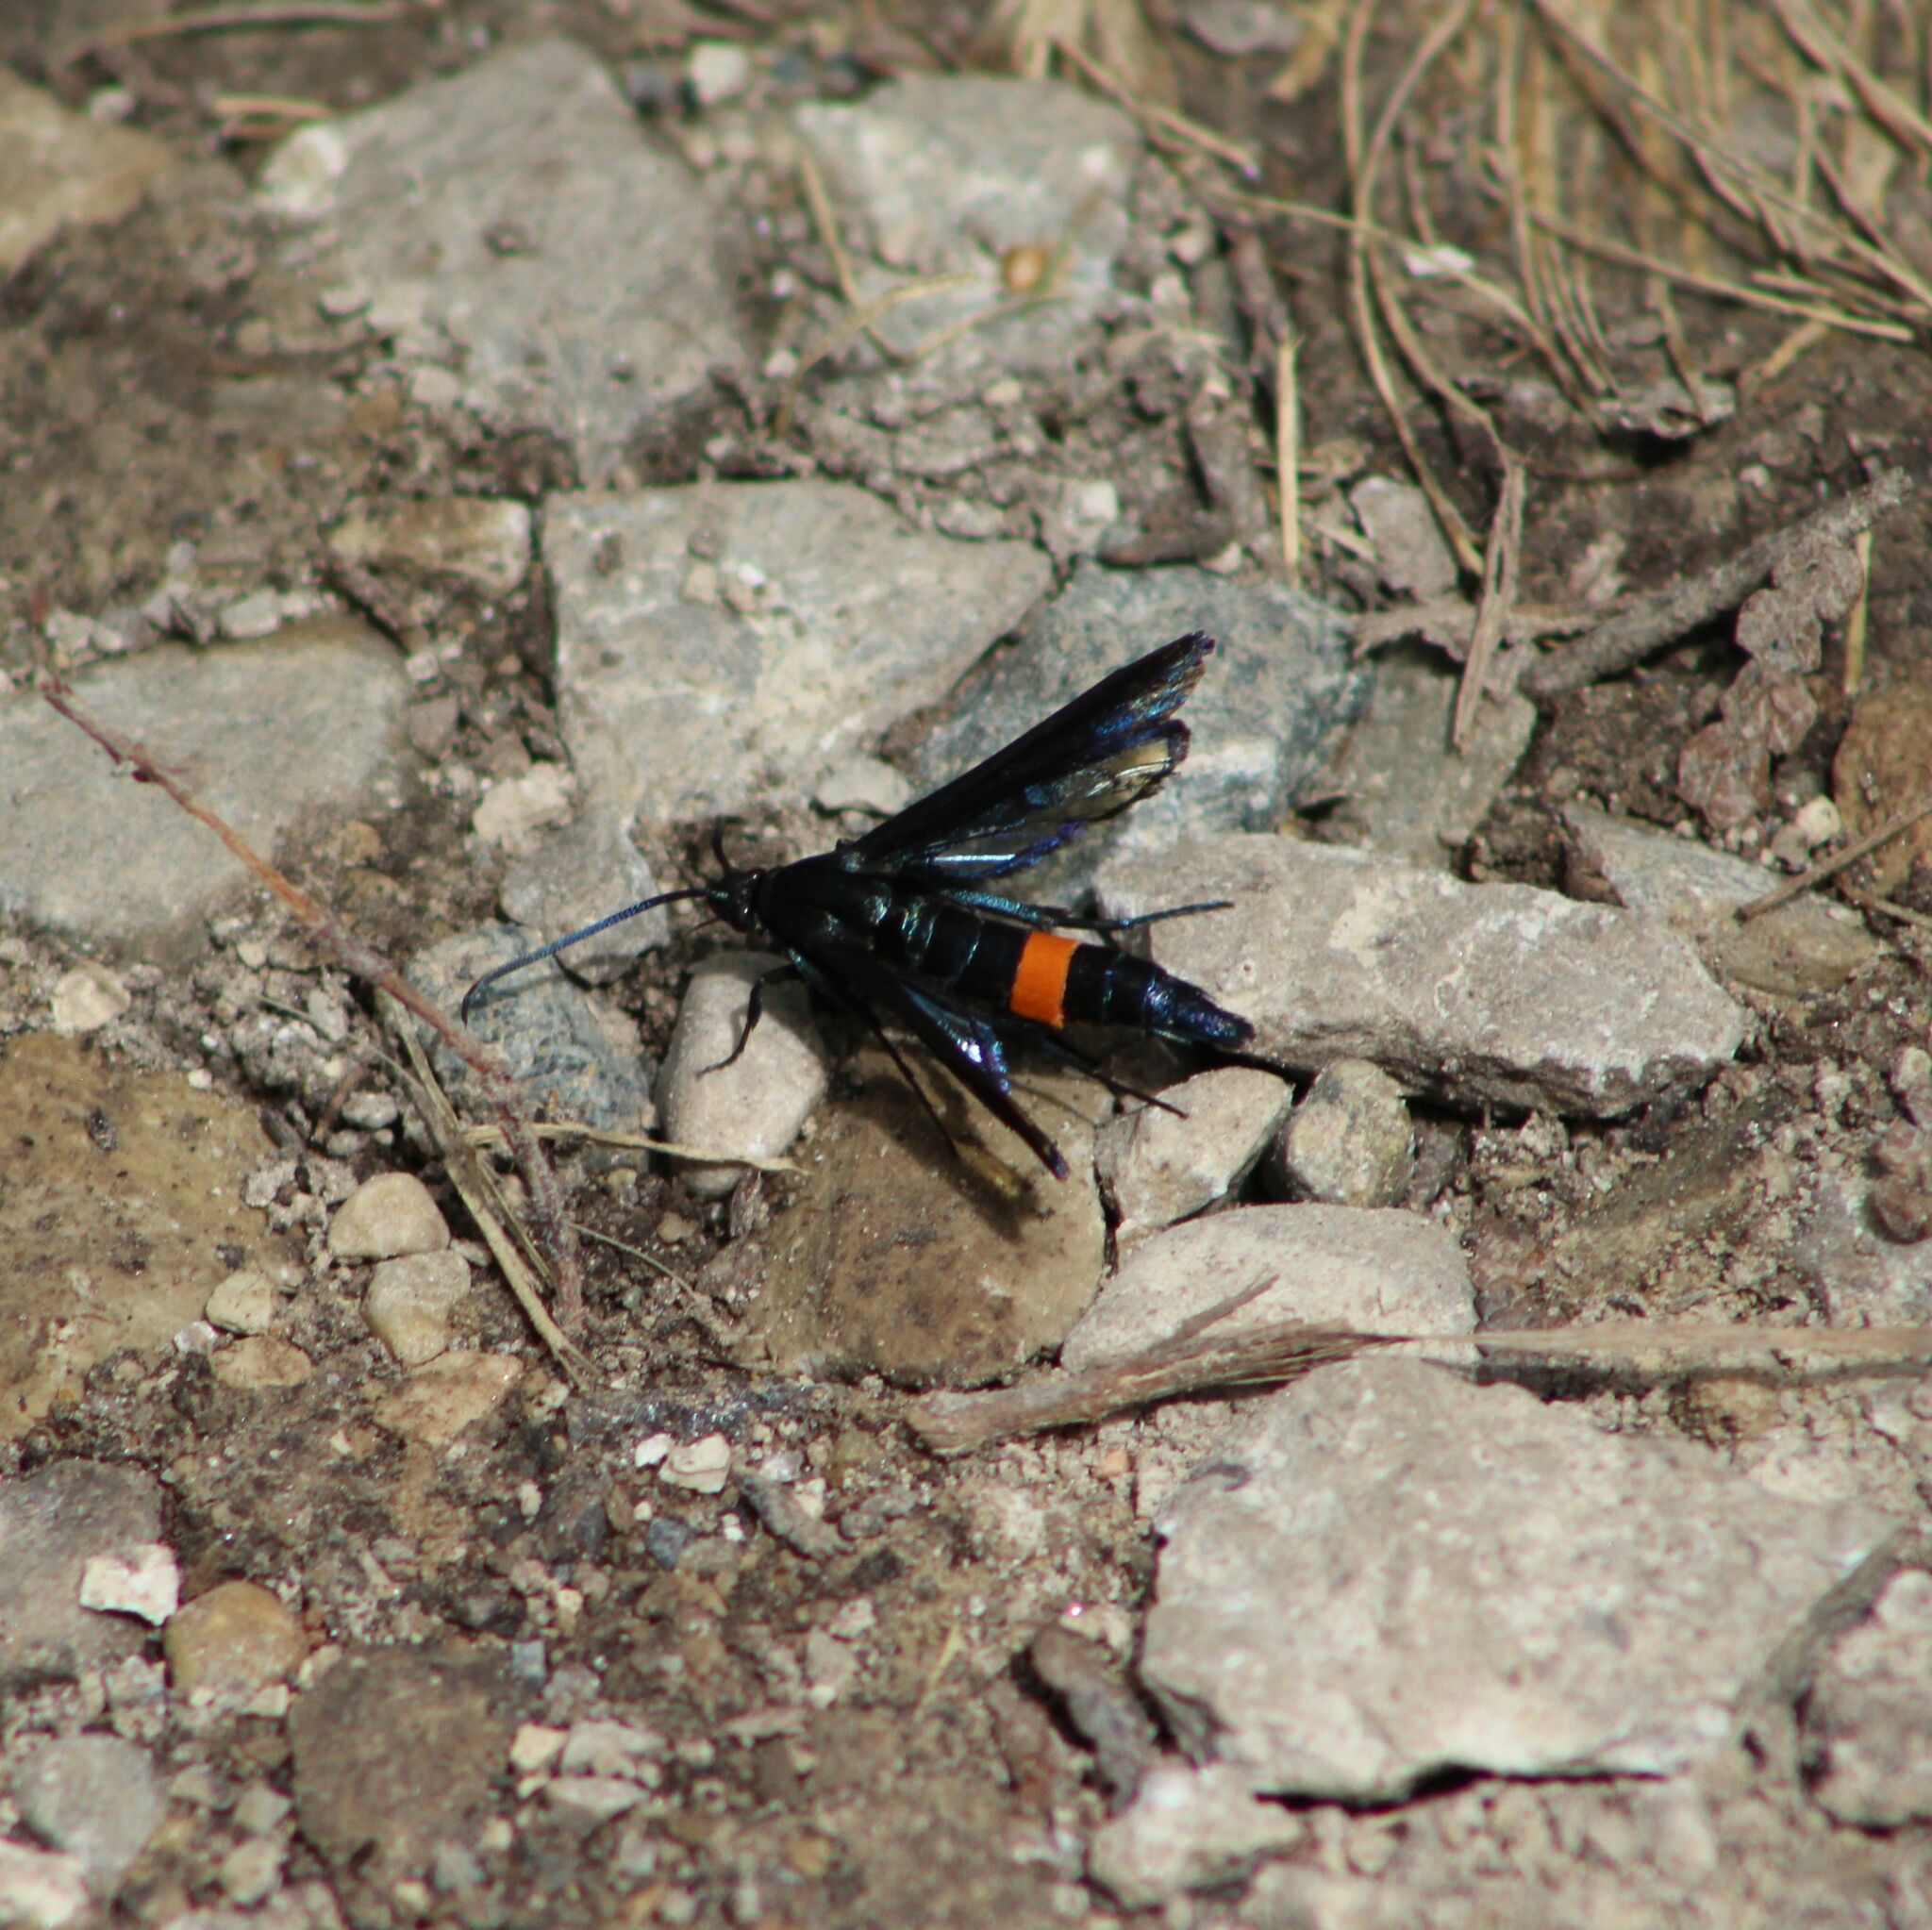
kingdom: Animalia
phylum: Arthropoda
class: Insecta
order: Lepidoptera
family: Sesiidae
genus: Synanthedon
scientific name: Synanthedon exitiosa
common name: Peachtree borer moth
